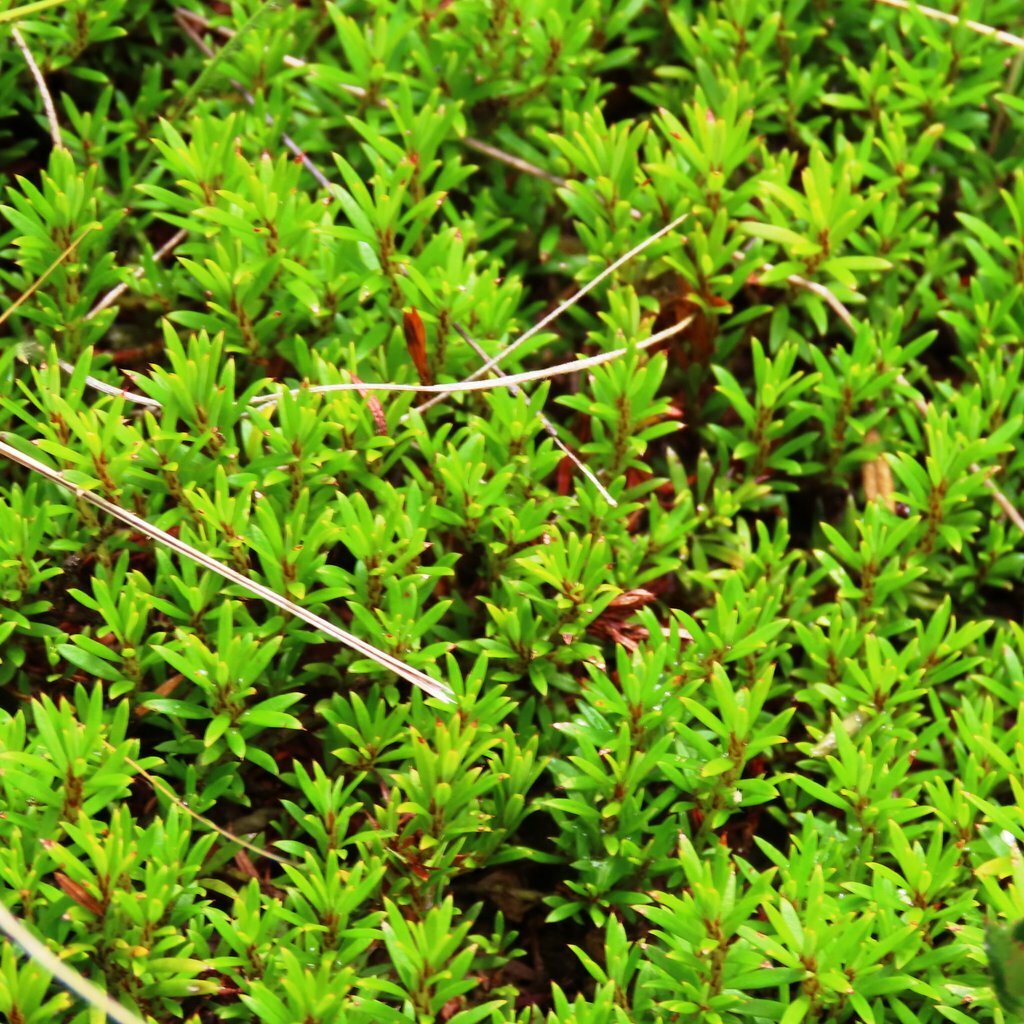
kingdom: Plantae
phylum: Tracheophyta
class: Magnoliopsida
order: Fabales
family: Fabaceae
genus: Pultenaea
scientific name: Pultenaea pedunculata
